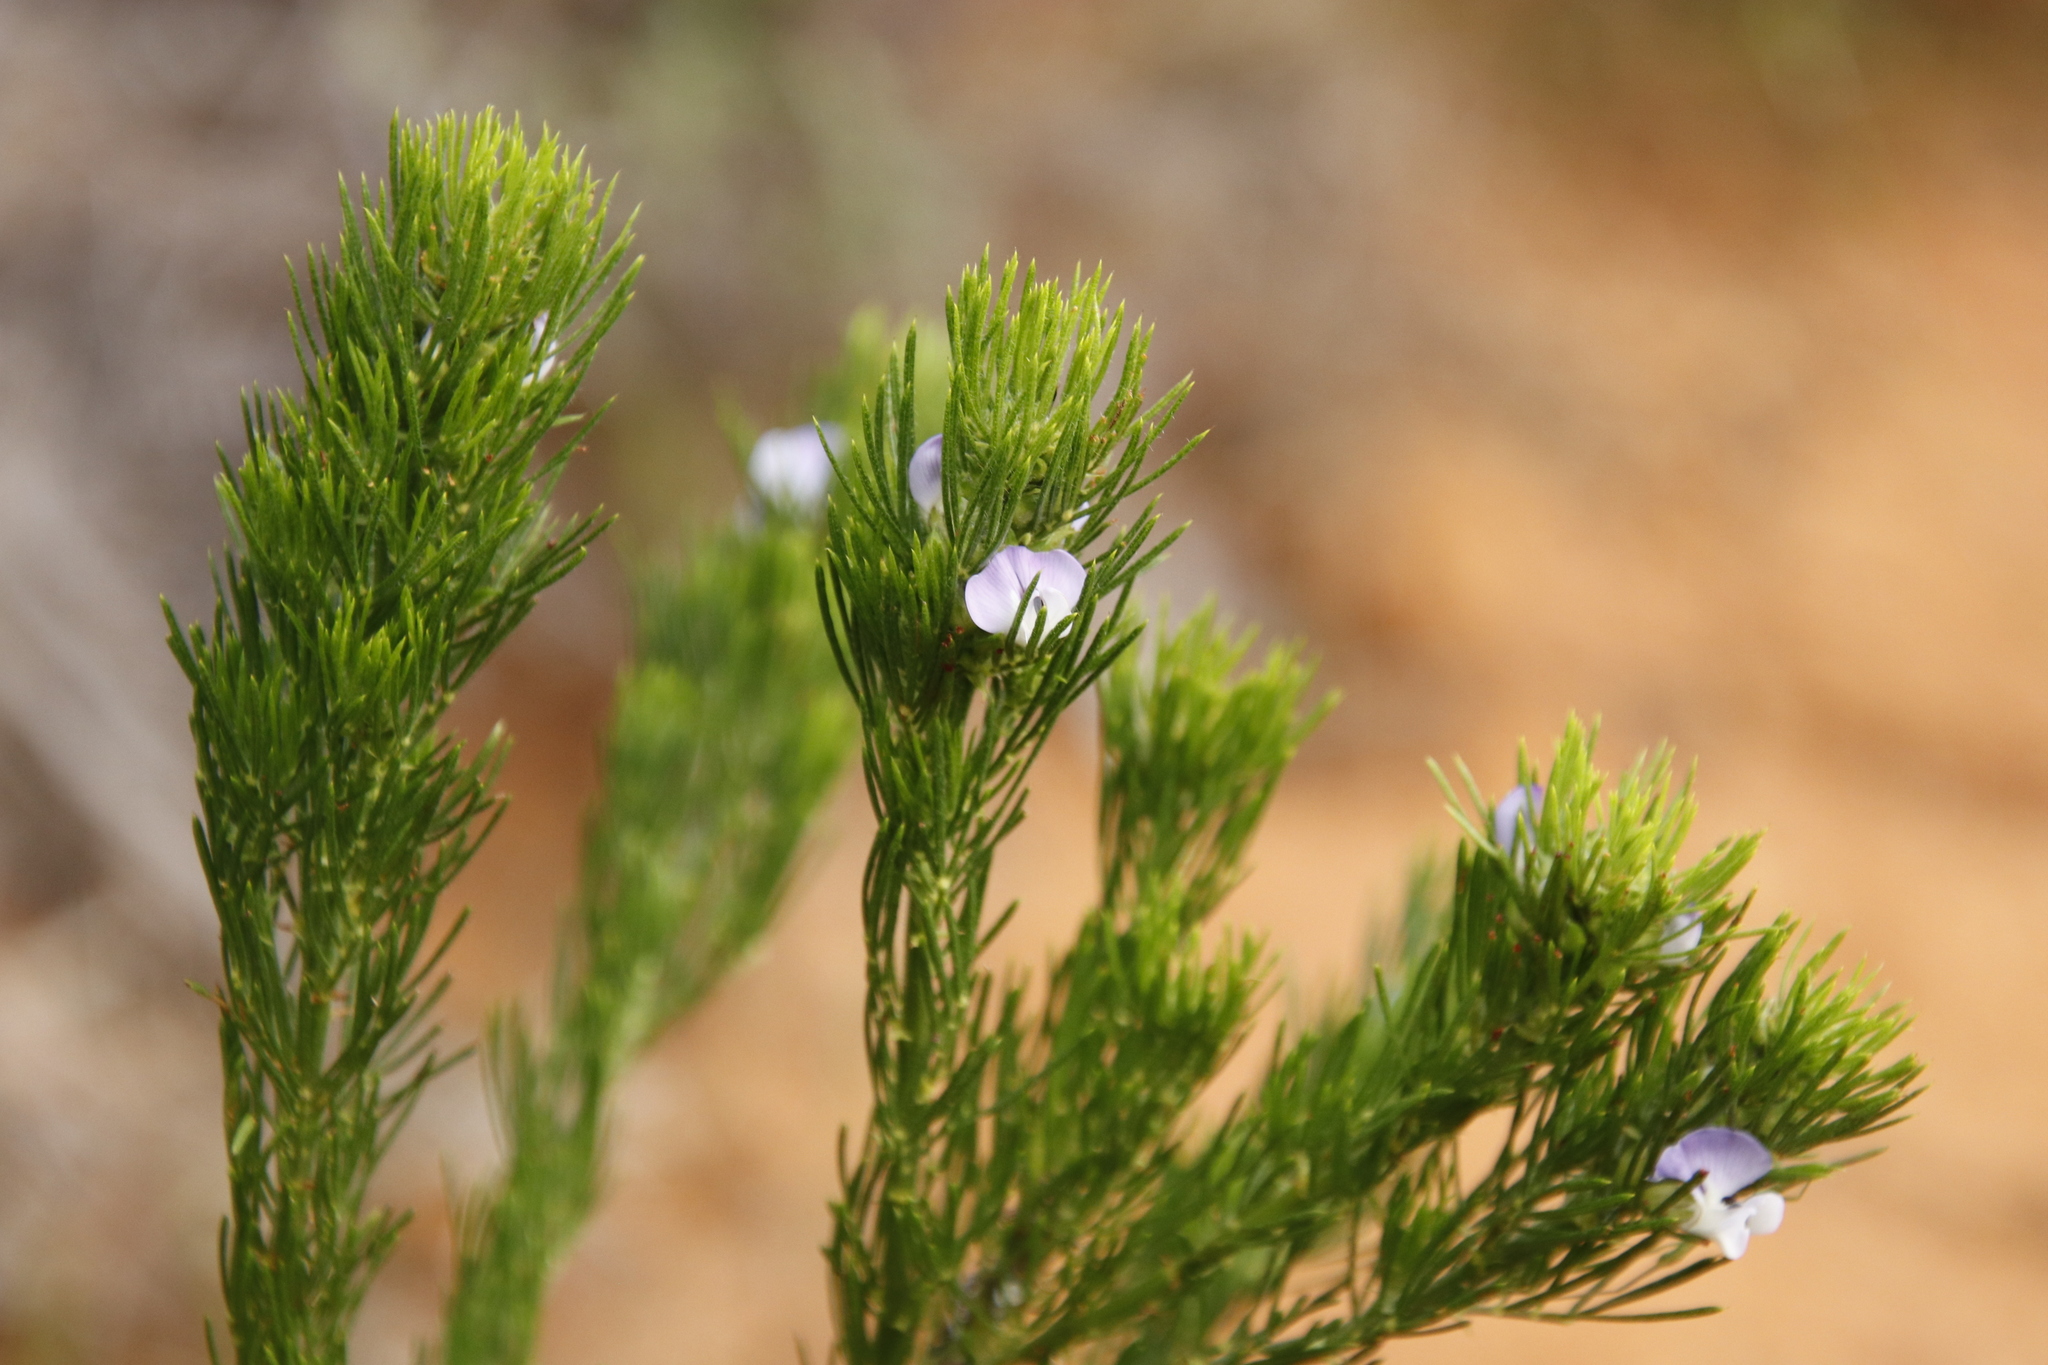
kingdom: Plantae
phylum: Tracheophyta
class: Magnoliopsida
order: Fabales
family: Fabaceae
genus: Psoralea
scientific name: Psoralea pinnata
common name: African scurfpea
